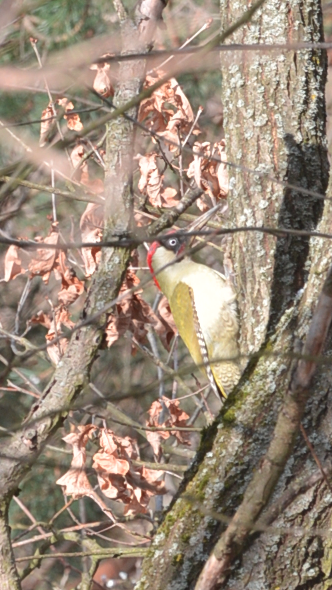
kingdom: Animalia
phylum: Chordata
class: Aves
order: Piciformes
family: Picidae
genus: Picus
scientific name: Picus viridis
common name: European green woodpecker
